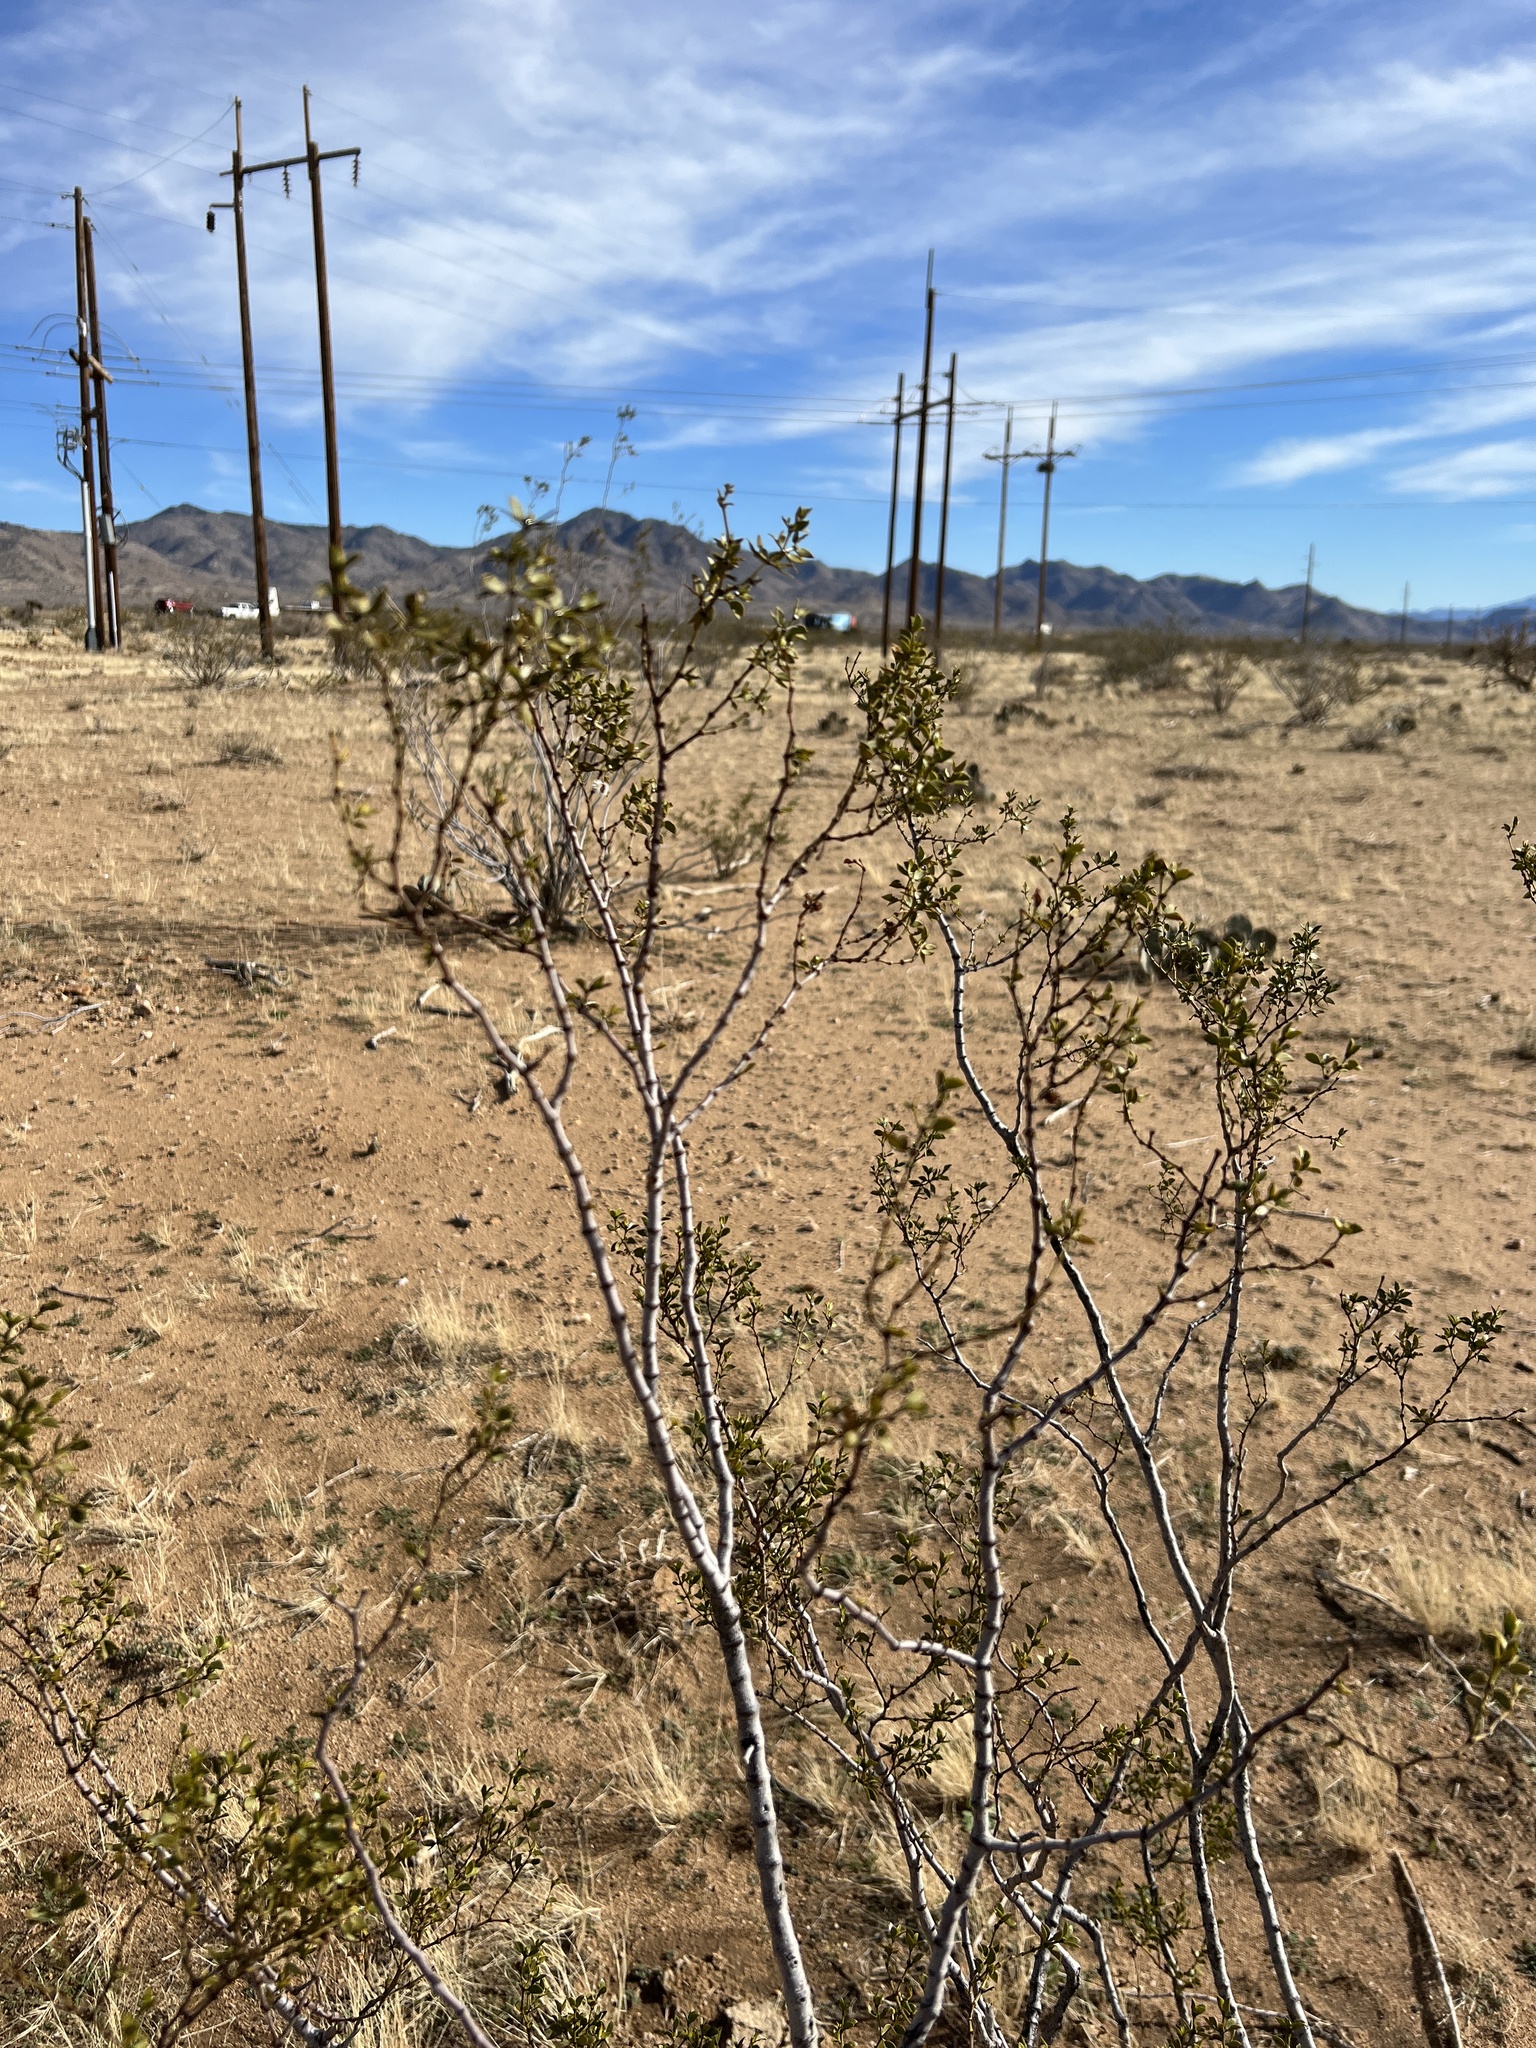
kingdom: Plantae
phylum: Tracheophyta
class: Magnoliopsida
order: Zygophyllales
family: Zygophyllaceae
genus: Larrea
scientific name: Larrea tridentata
